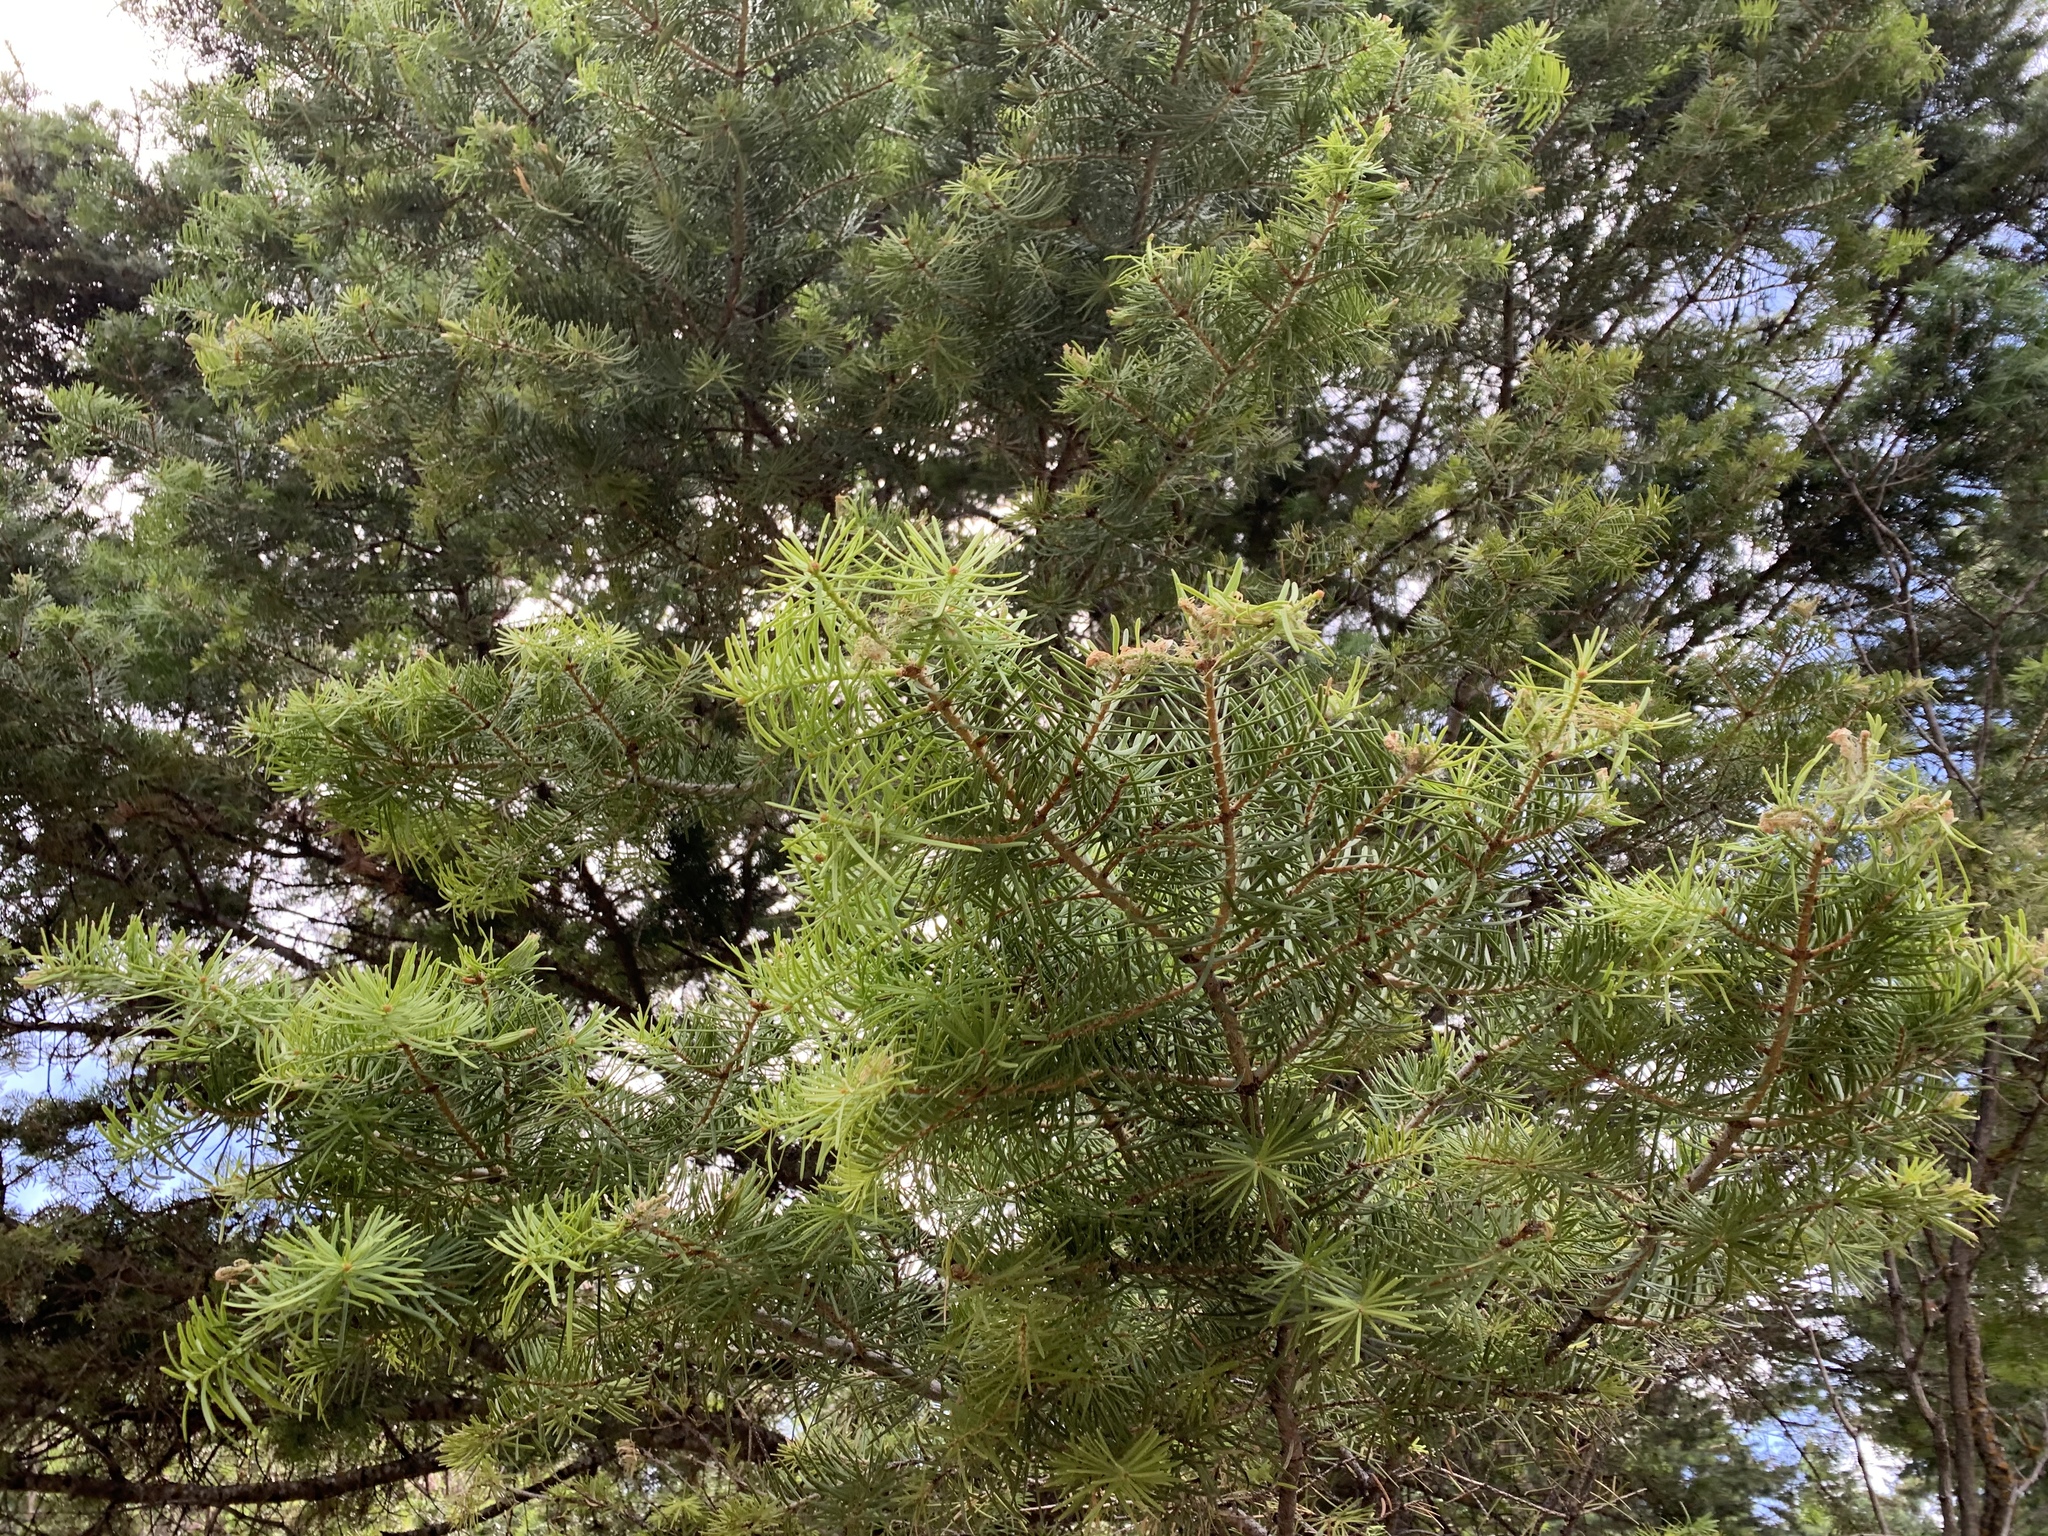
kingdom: Plantae
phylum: Tracheophyta
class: Pinopsida
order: Pinales
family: Pinaceae
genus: Abies
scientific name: Abies concolor
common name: Colorado fir
